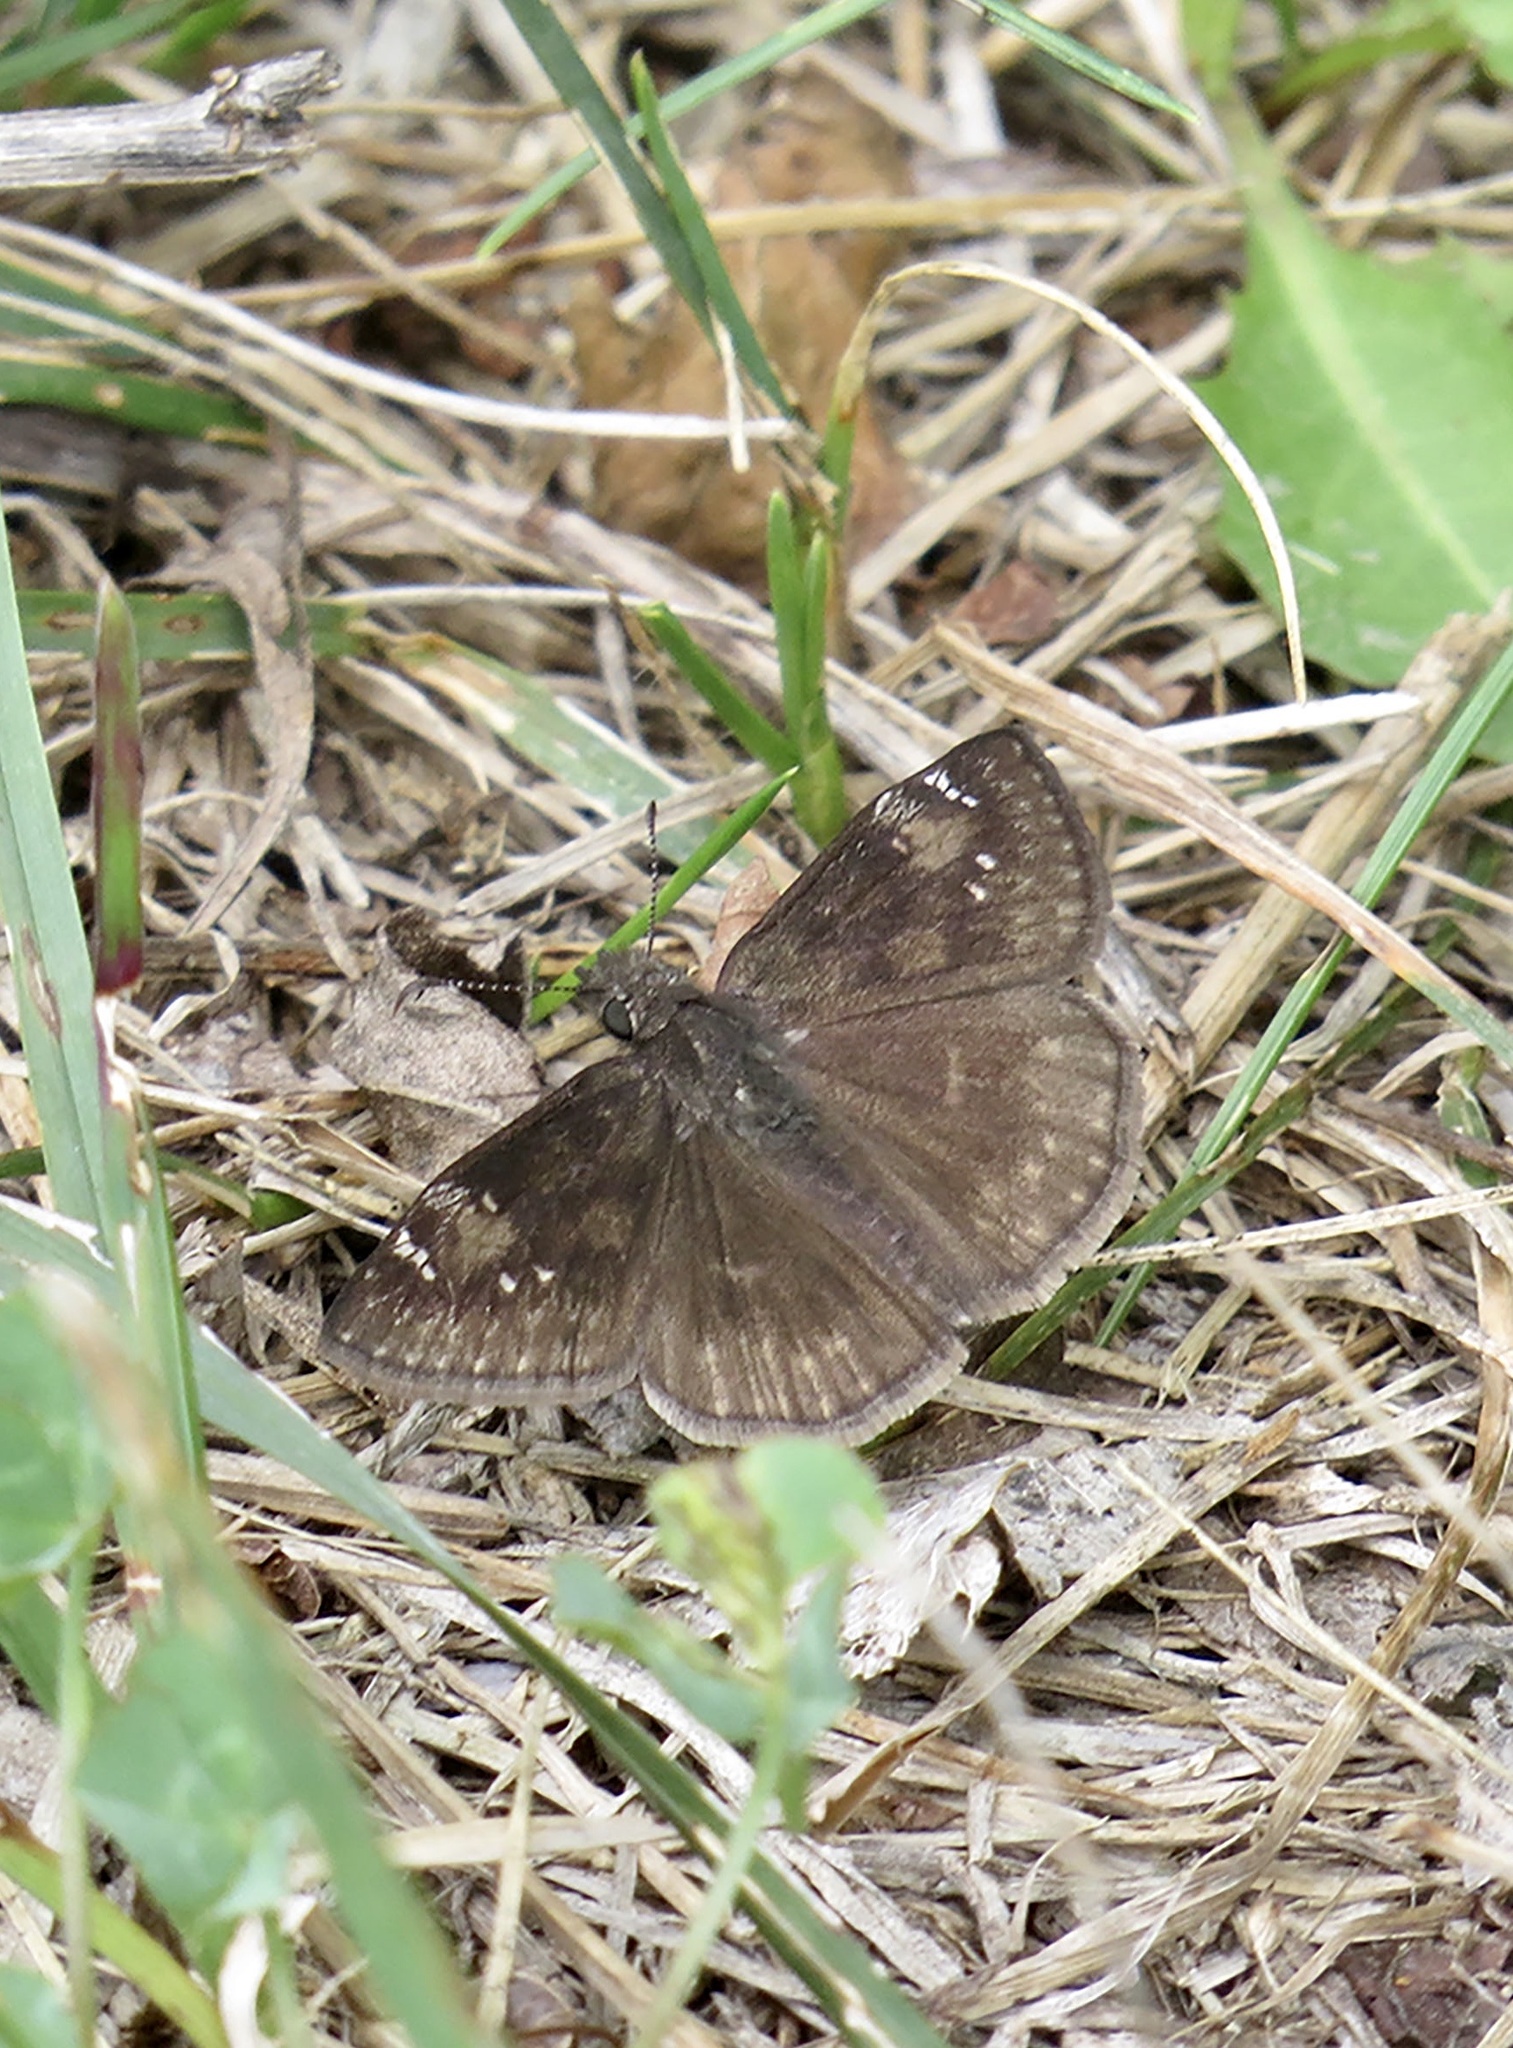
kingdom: Animalia
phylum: Arthropoda
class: Insecta
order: Lepidoptera
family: Hesperiidae
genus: Erynnis
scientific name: Erynnis baptisiae
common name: Wild indigo duskywing
